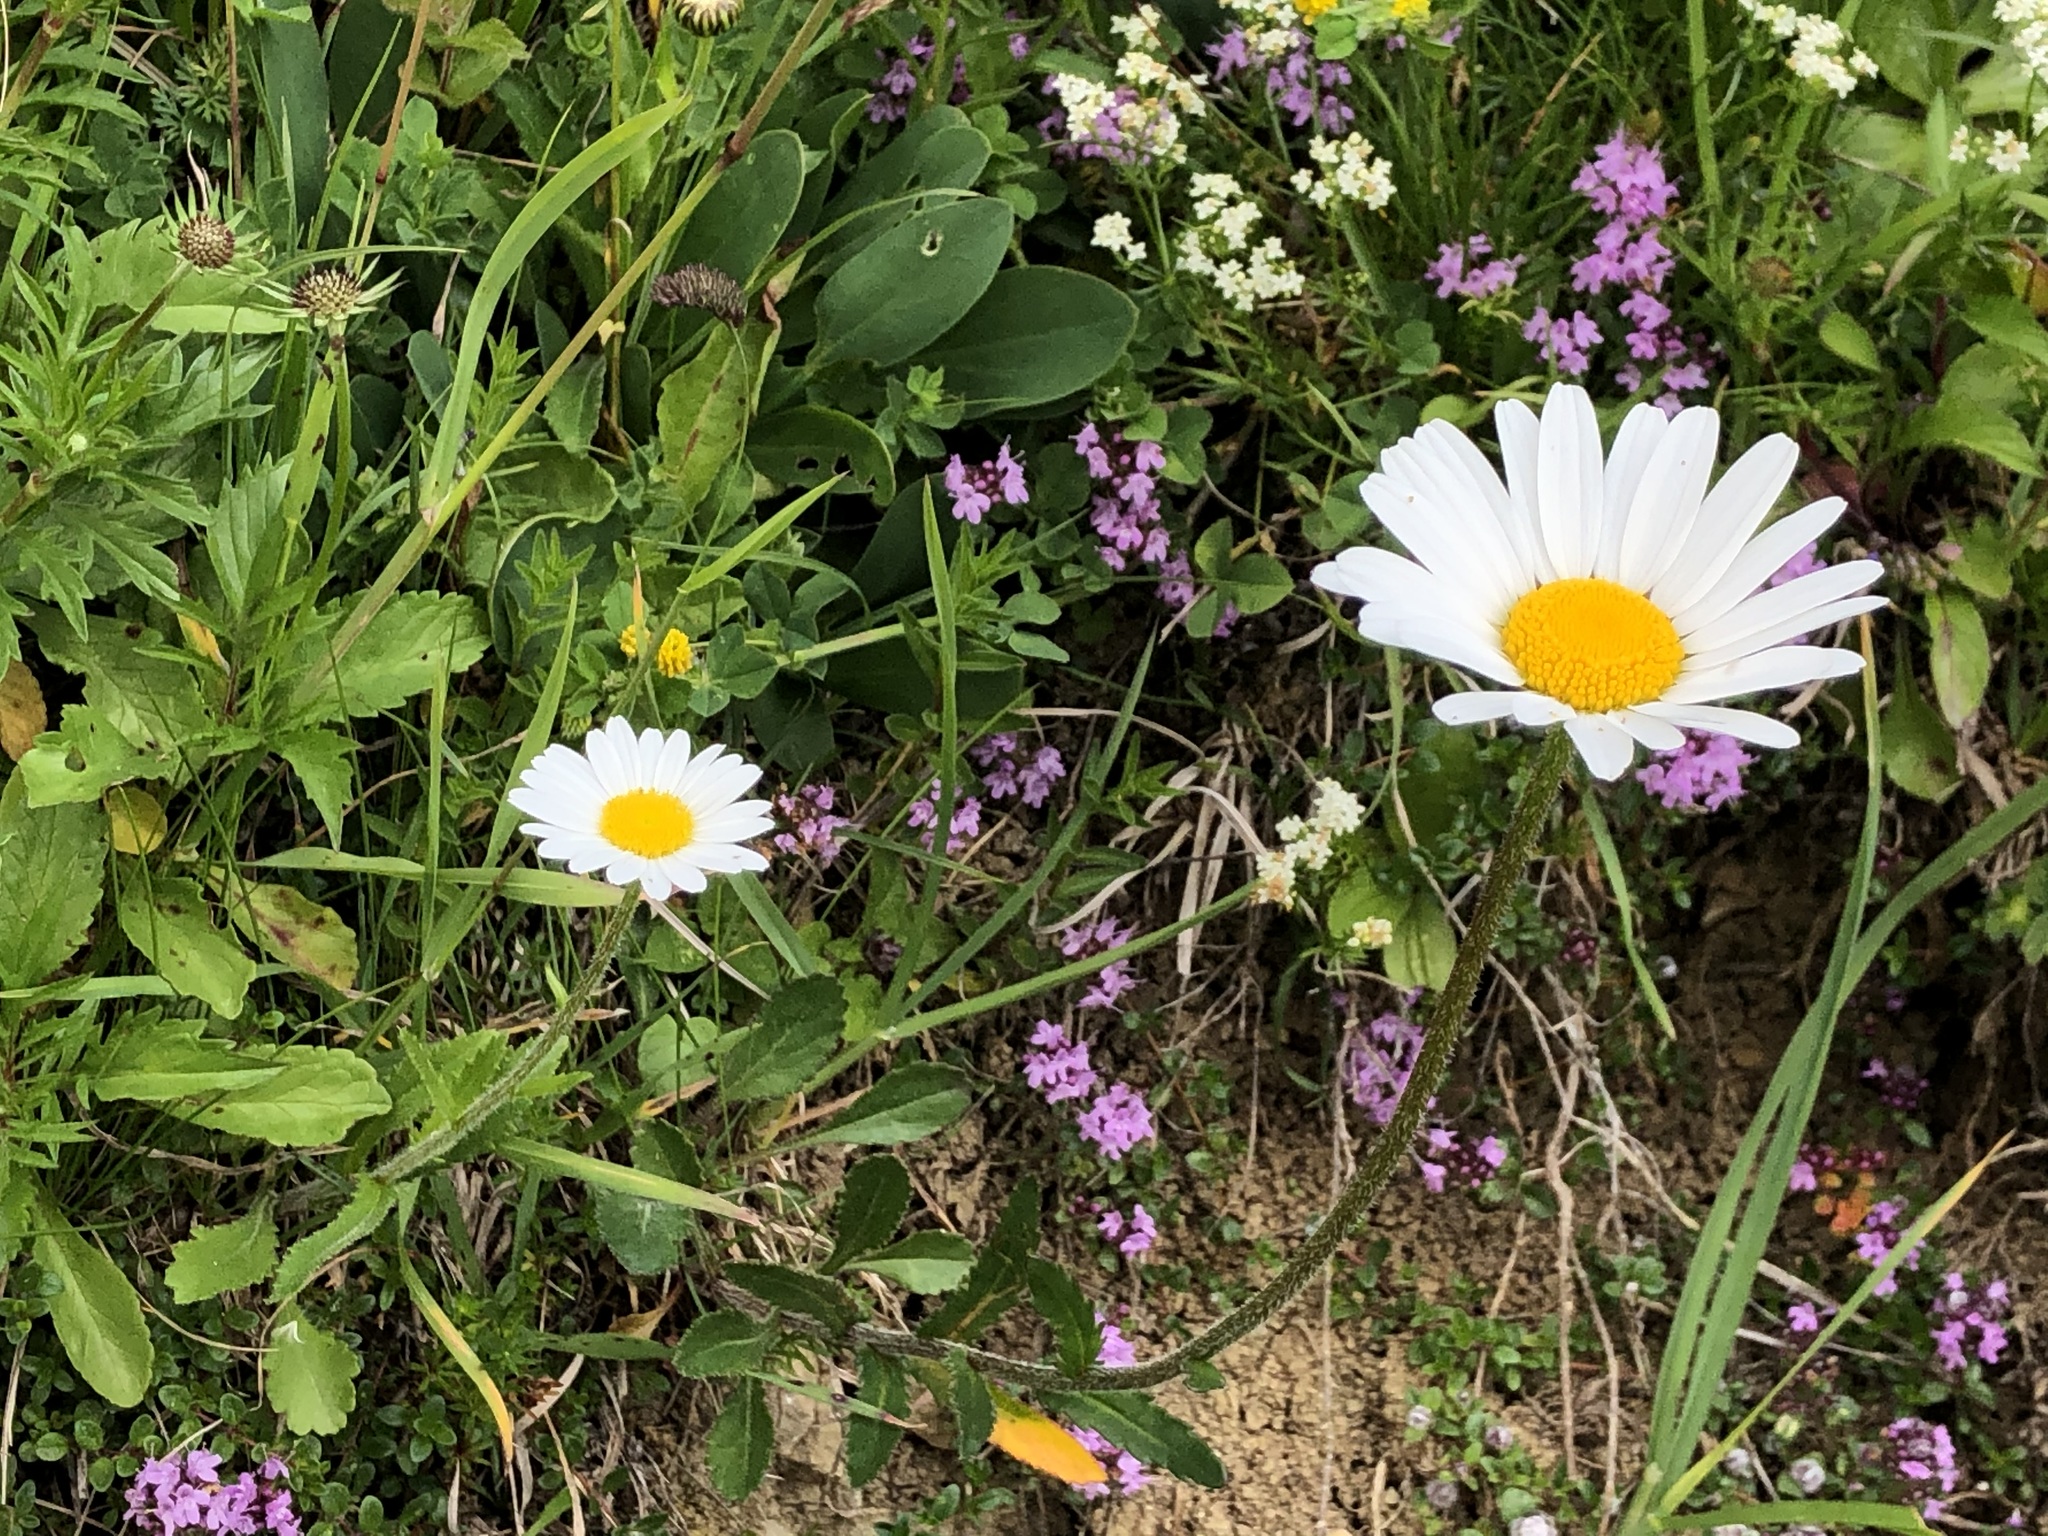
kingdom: Plantae
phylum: Tracheophyta
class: Magnoliopsida
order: Asterales
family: Asteraceae
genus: Leucanthemum
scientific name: Leucanthemum adustum
